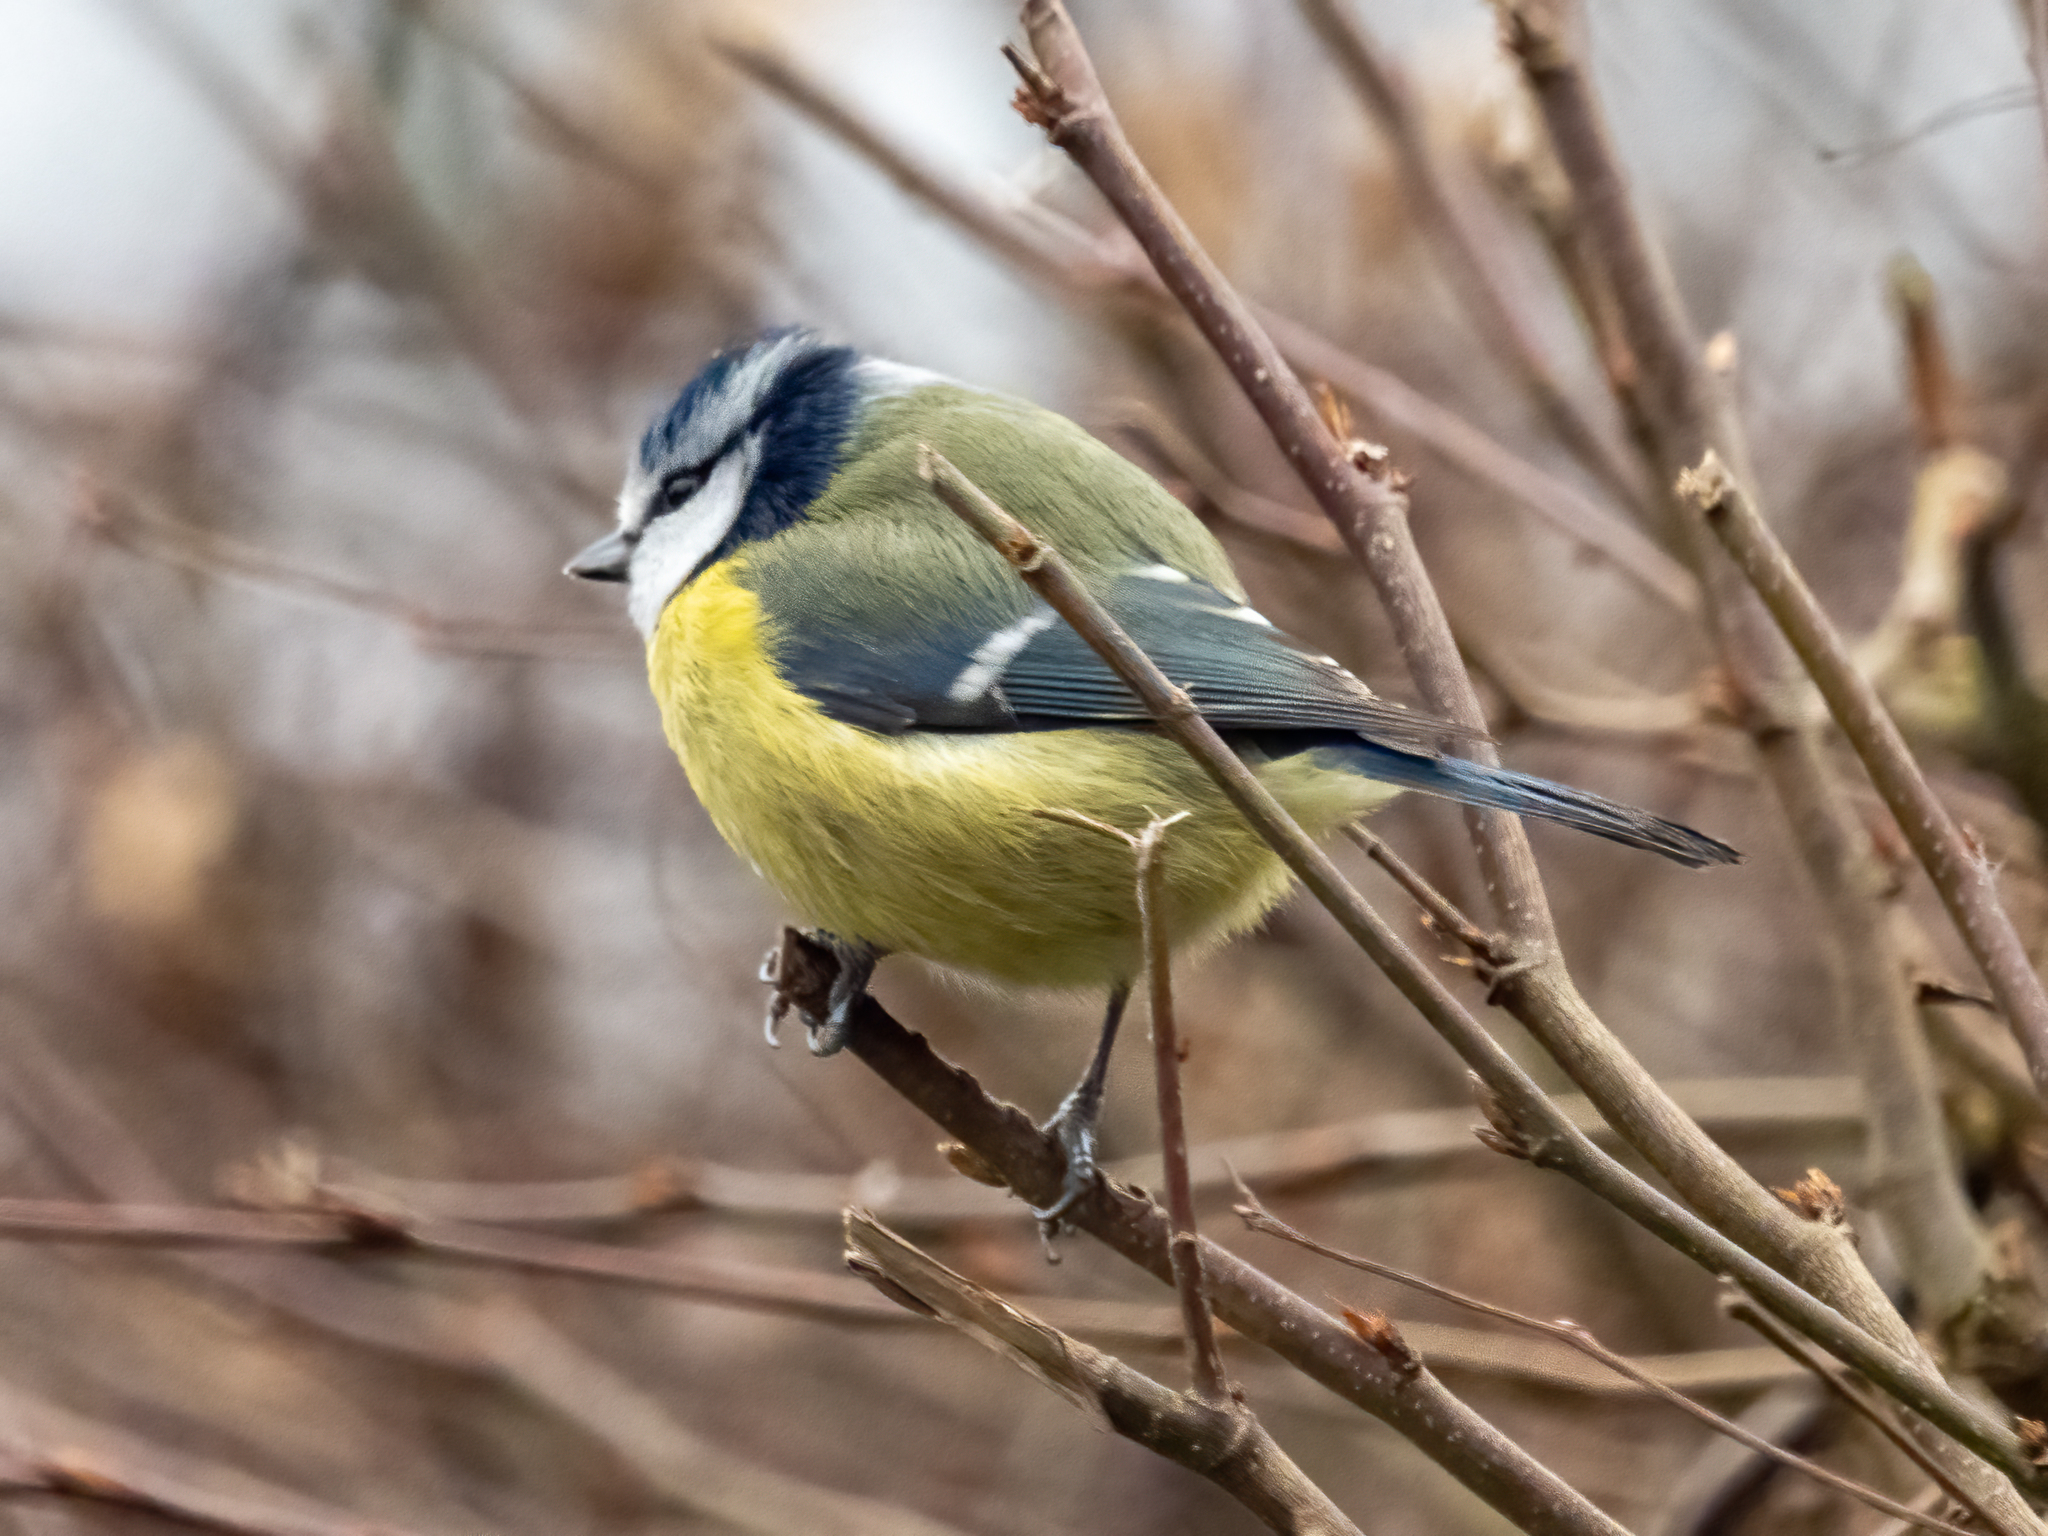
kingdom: Animalia
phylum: Chordata
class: Aves
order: Passeriformes
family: Paridae
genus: Cyanistes
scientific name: Cyanistes caeruleus
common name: Eurasian blue tit
